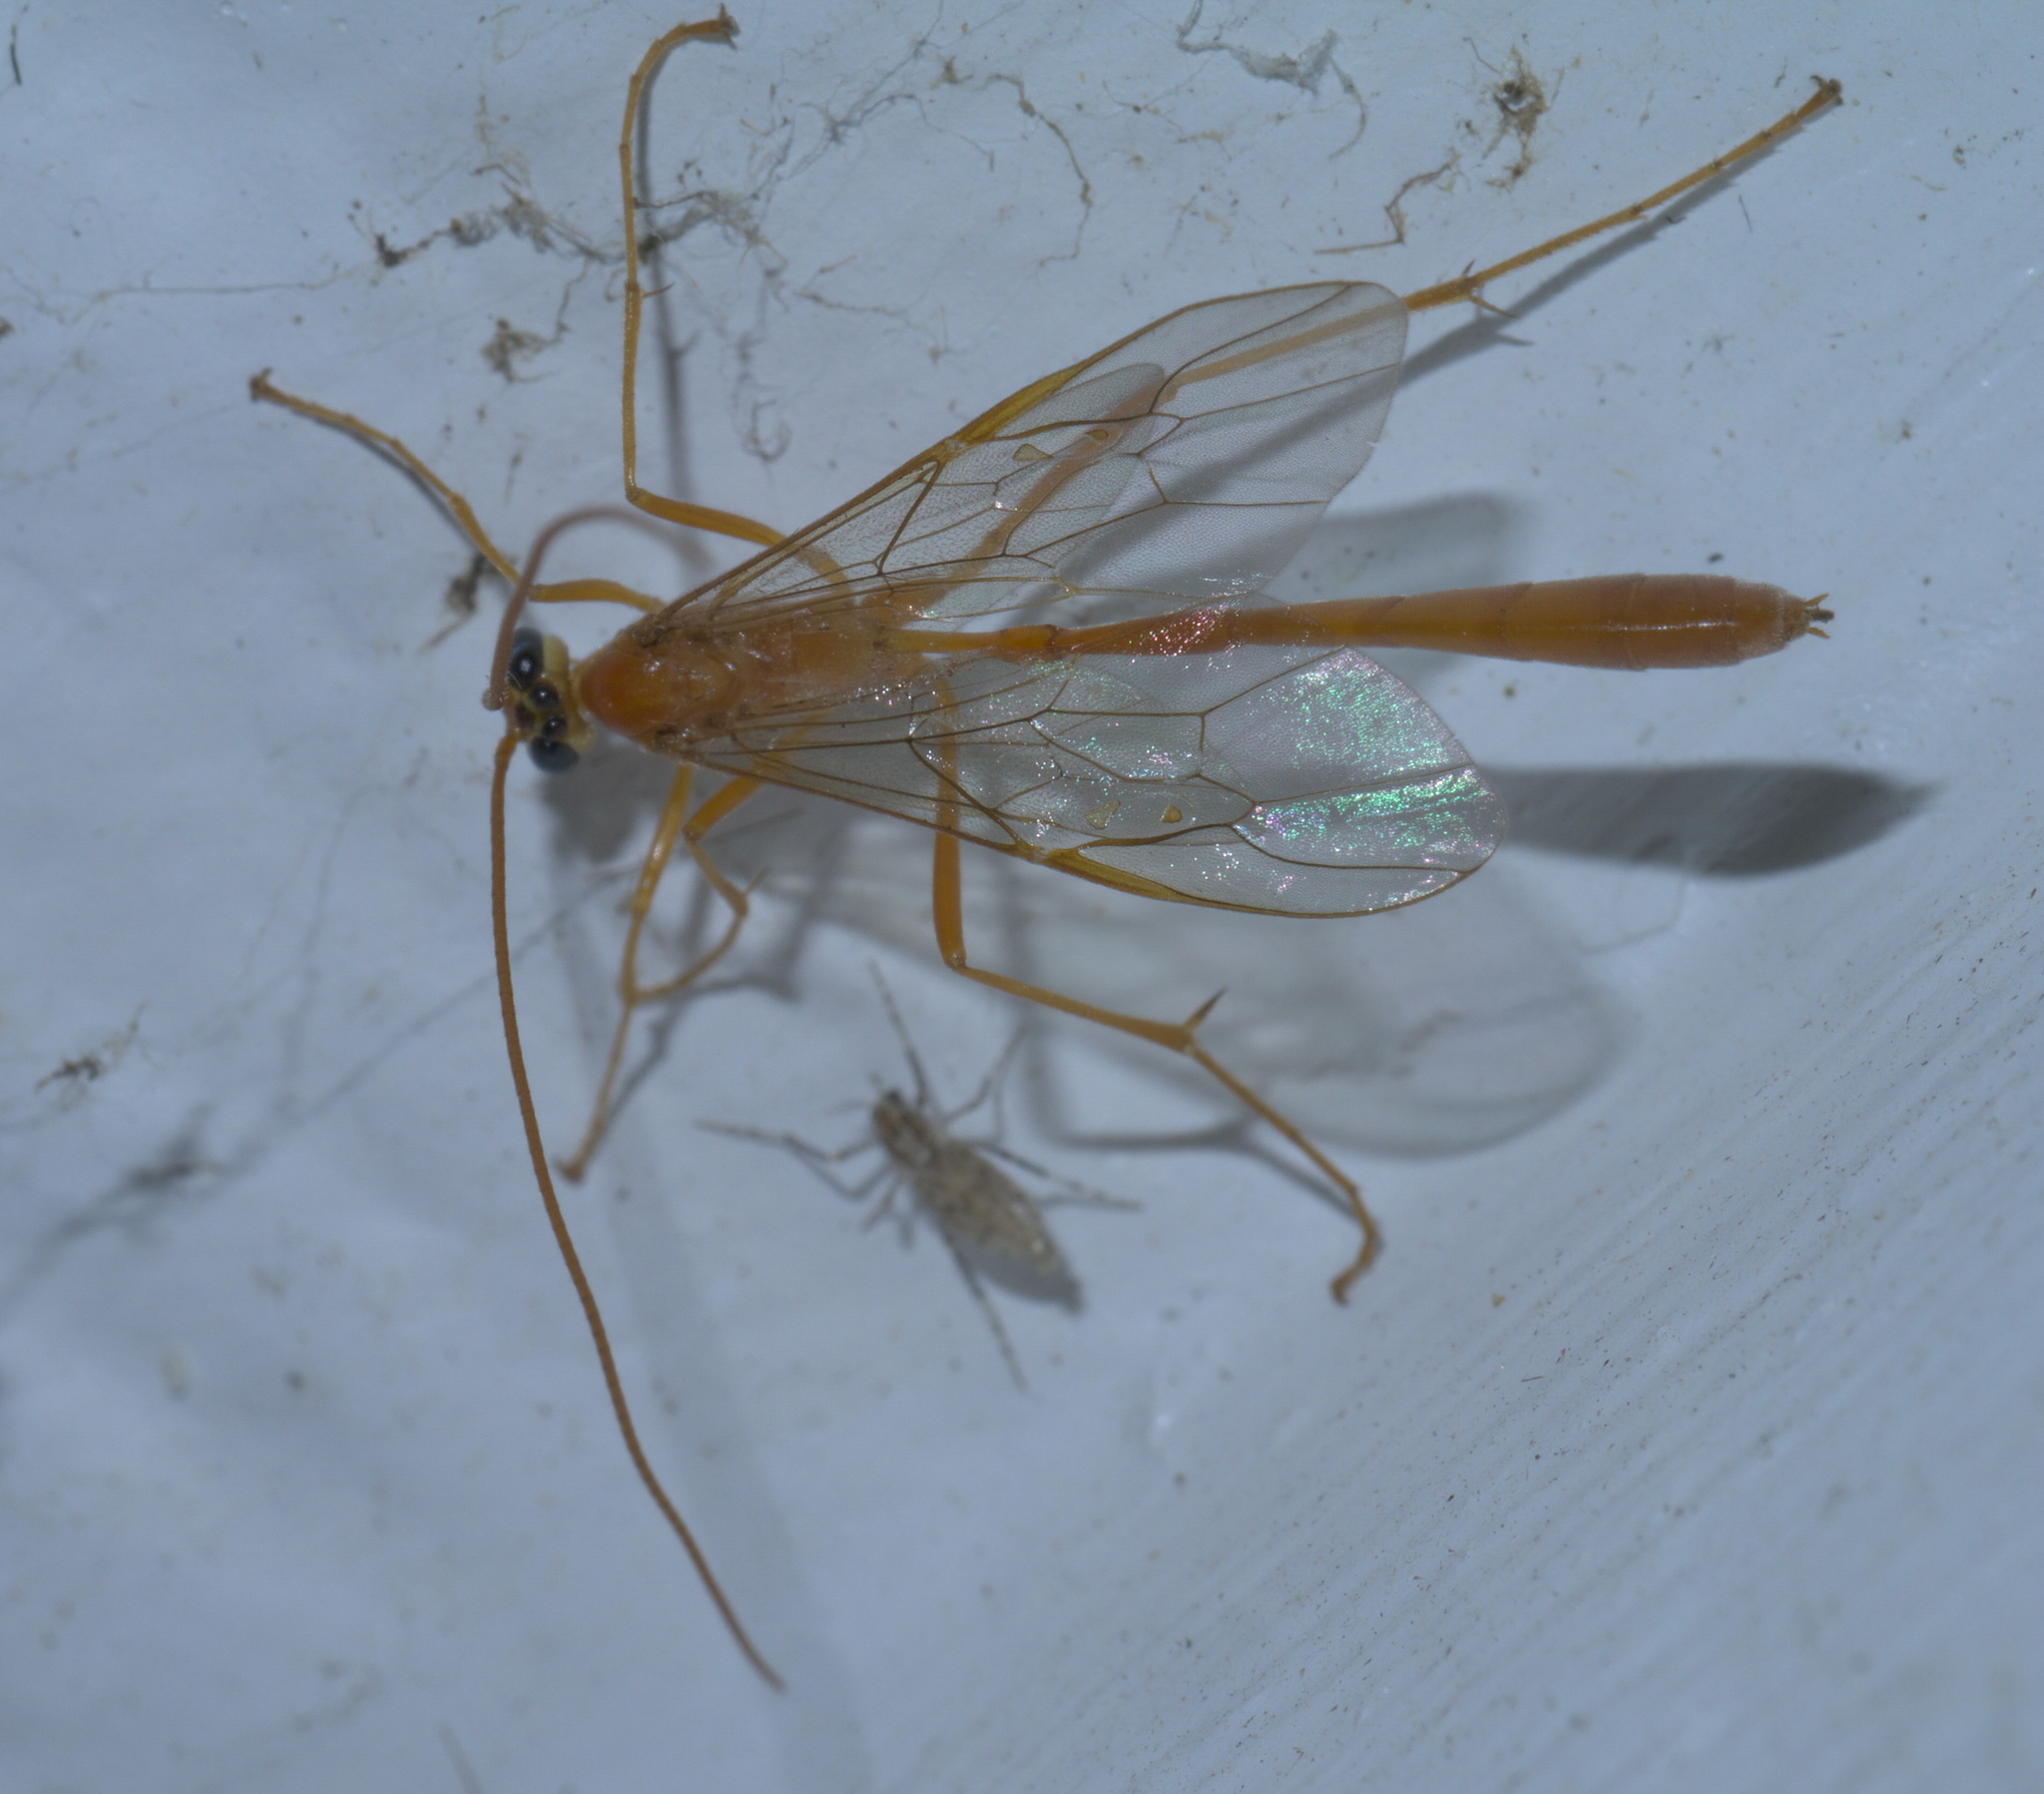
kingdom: Animalia
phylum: Arthropoda
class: Insecta
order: Hymenoptera
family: Ichneumonidae
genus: Enicospilus
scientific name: Enicospilus purgatus
